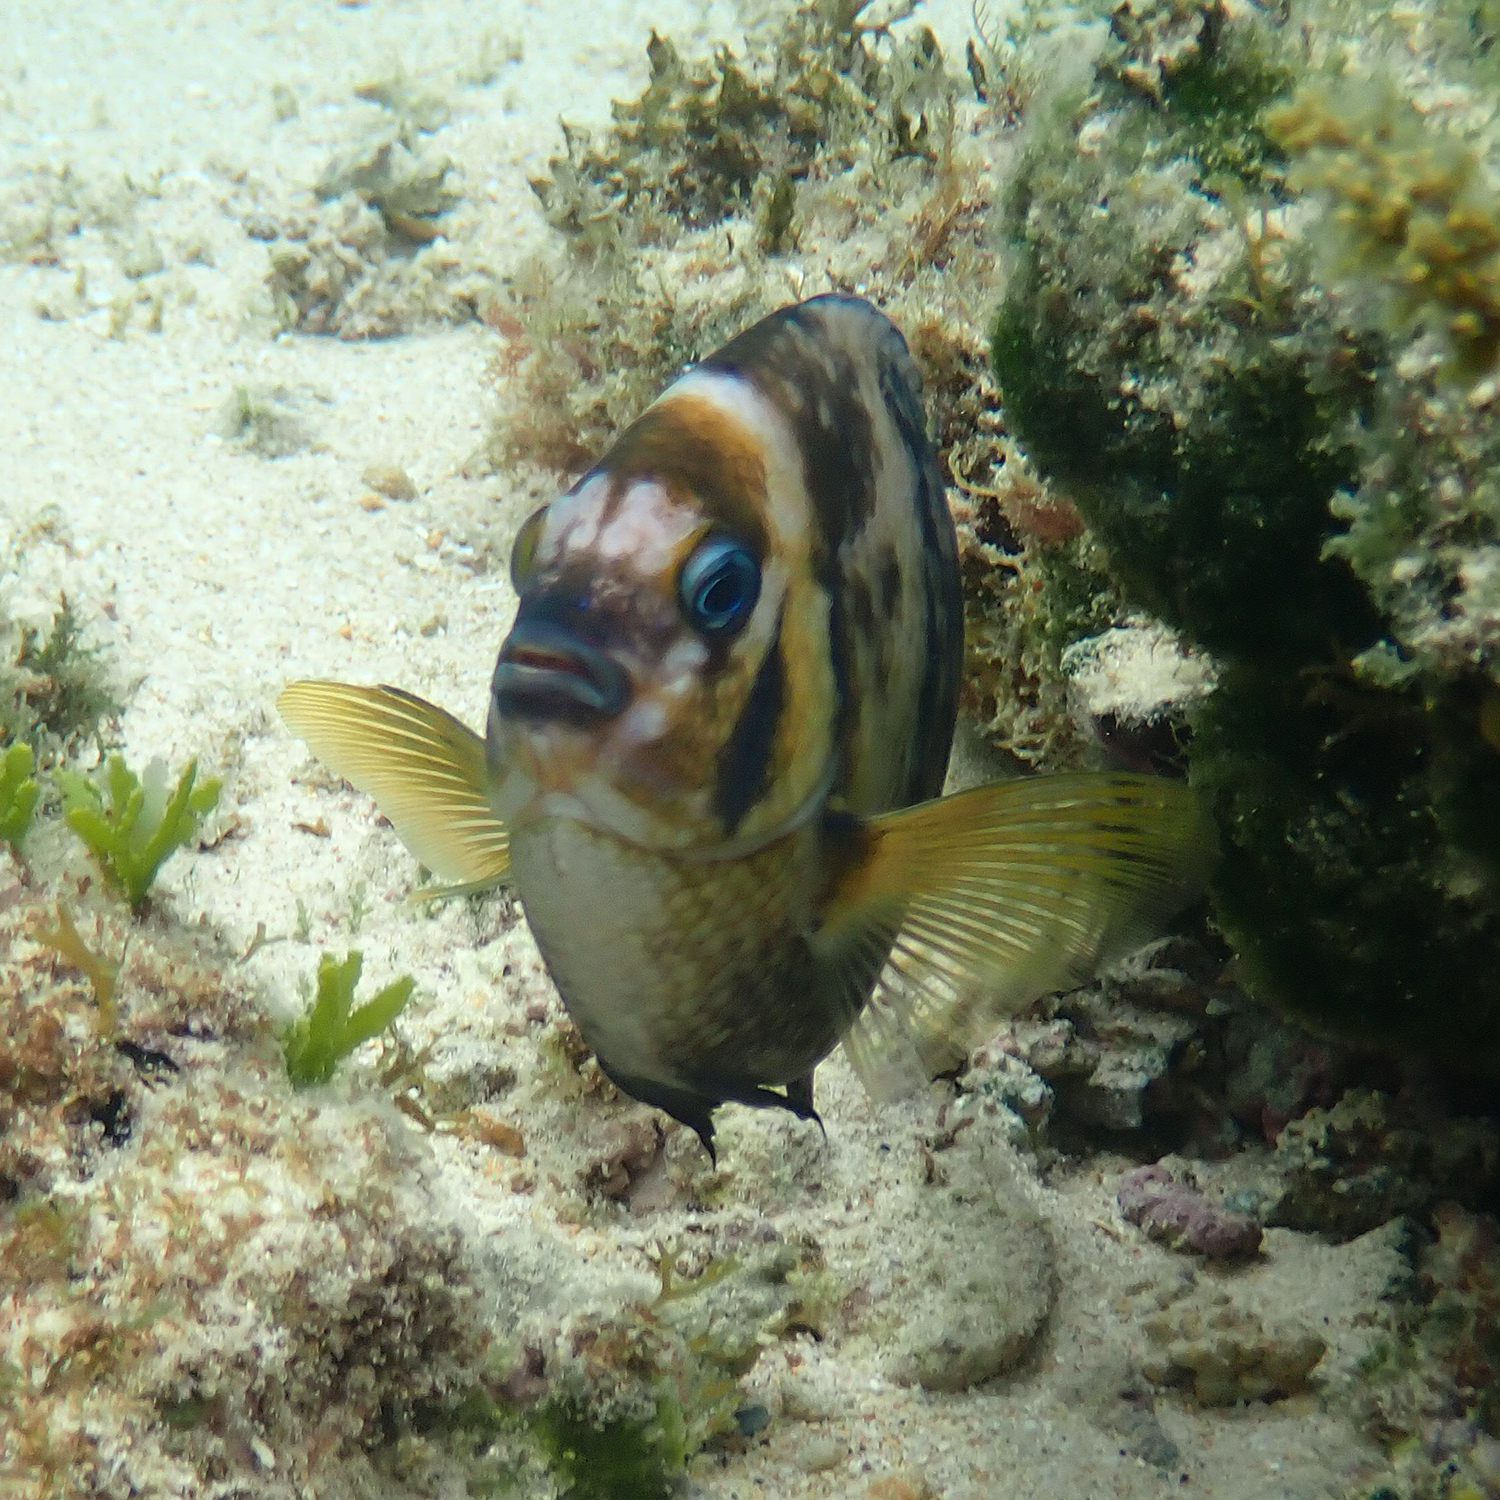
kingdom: Animalia
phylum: Chordata
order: Perciformes
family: Pomacentridae
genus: Parma
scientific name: Parma polylepis
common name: Banded parma
